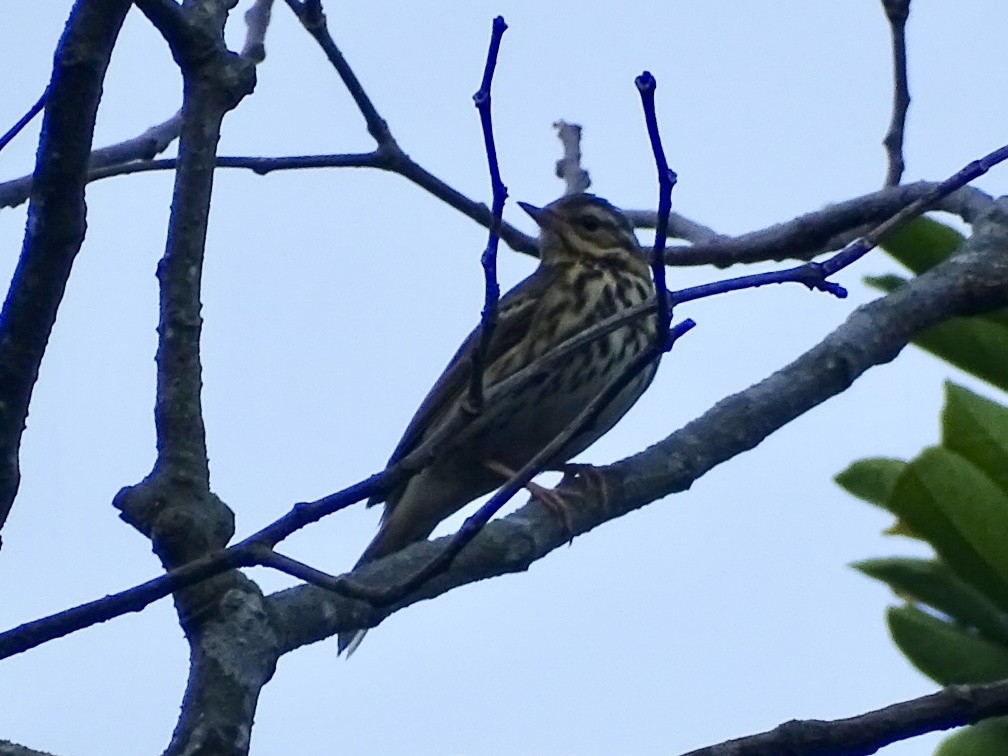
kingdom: Animalia
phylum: Chordata
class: Aves
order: Passeriformes
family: Motacillidae
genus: Anthus
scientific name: Anthus hodgsoni
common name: Olive-backed pipit
